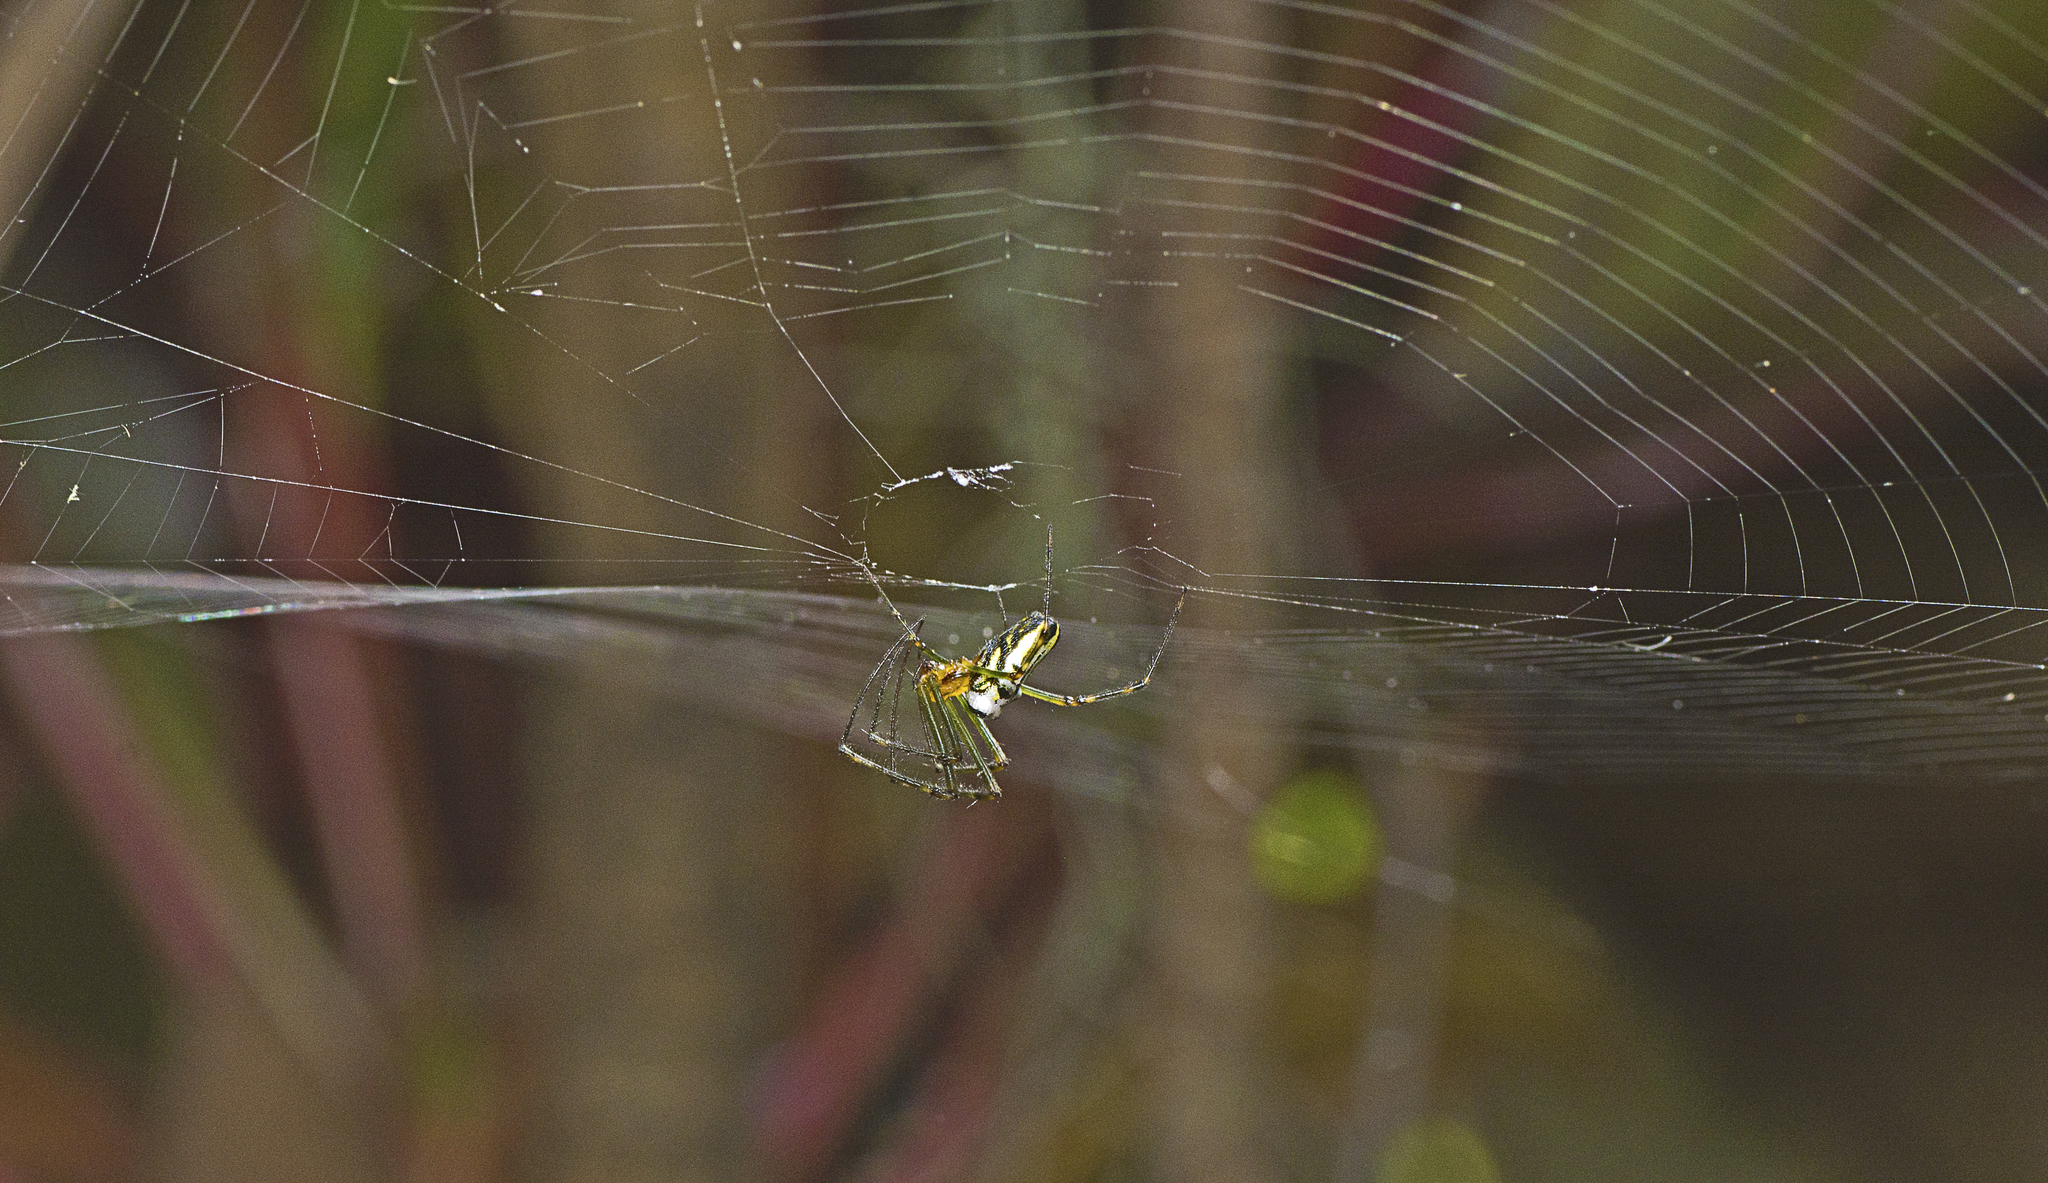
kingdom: Animalia
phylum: Arthropoda
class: Arachnida
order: Araneae
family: Tetragnathidae
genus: Leucauge
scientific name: Leucauge dromedaria
